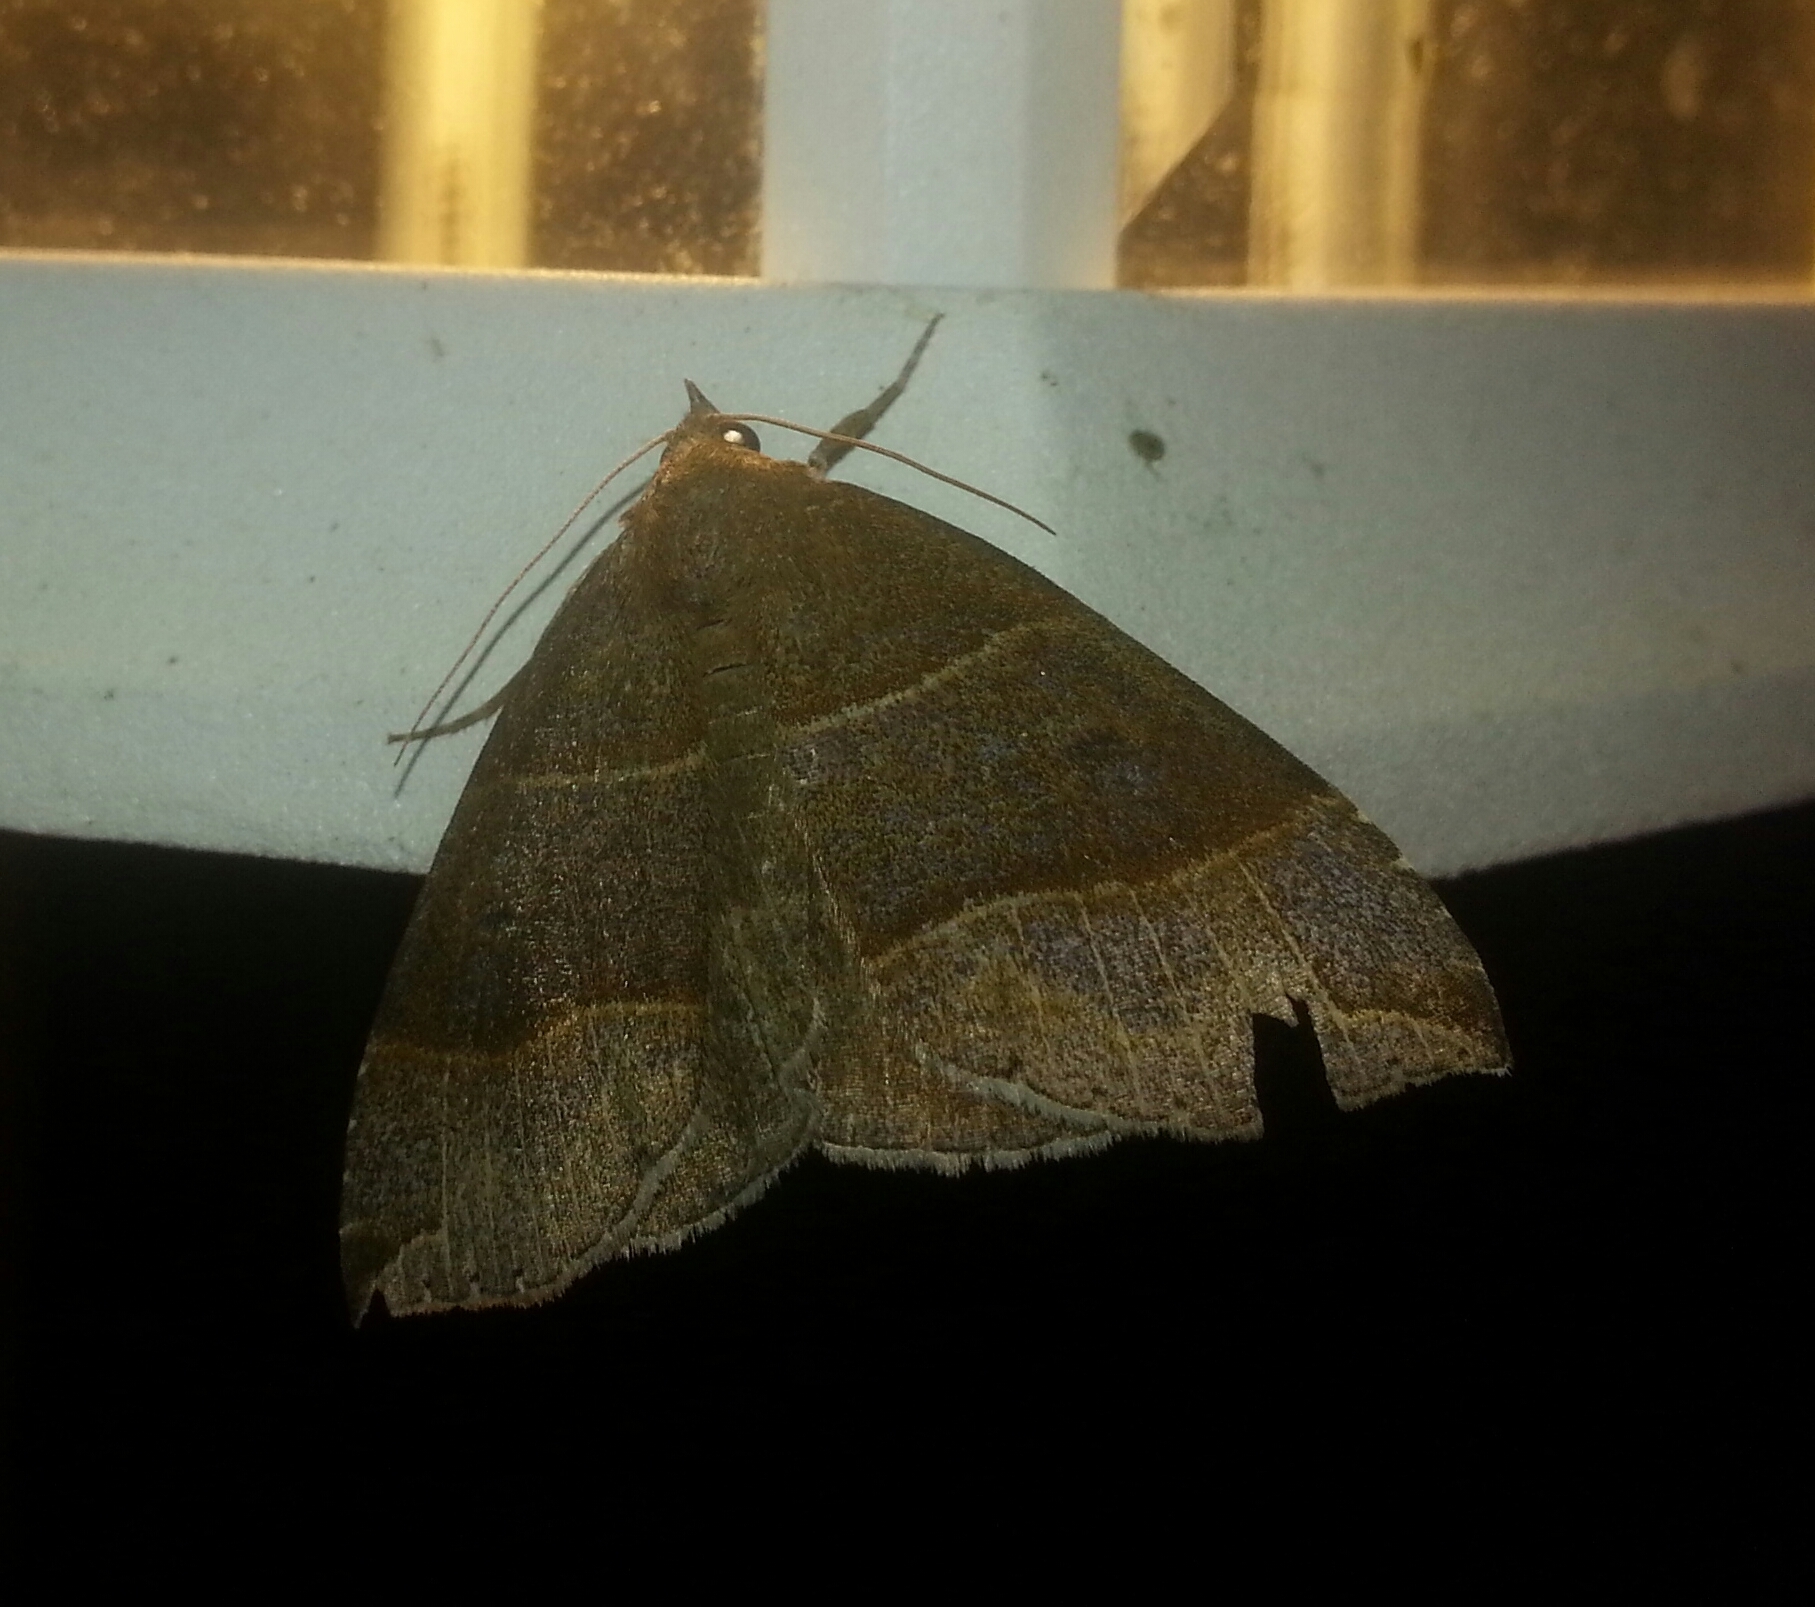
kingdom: Animalia
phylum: Arthropoda
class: Insecta
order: Lepidoptera
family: Erebidae
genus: Parallelia
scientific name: Parallelia bistriaris
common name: Maple looper moth
